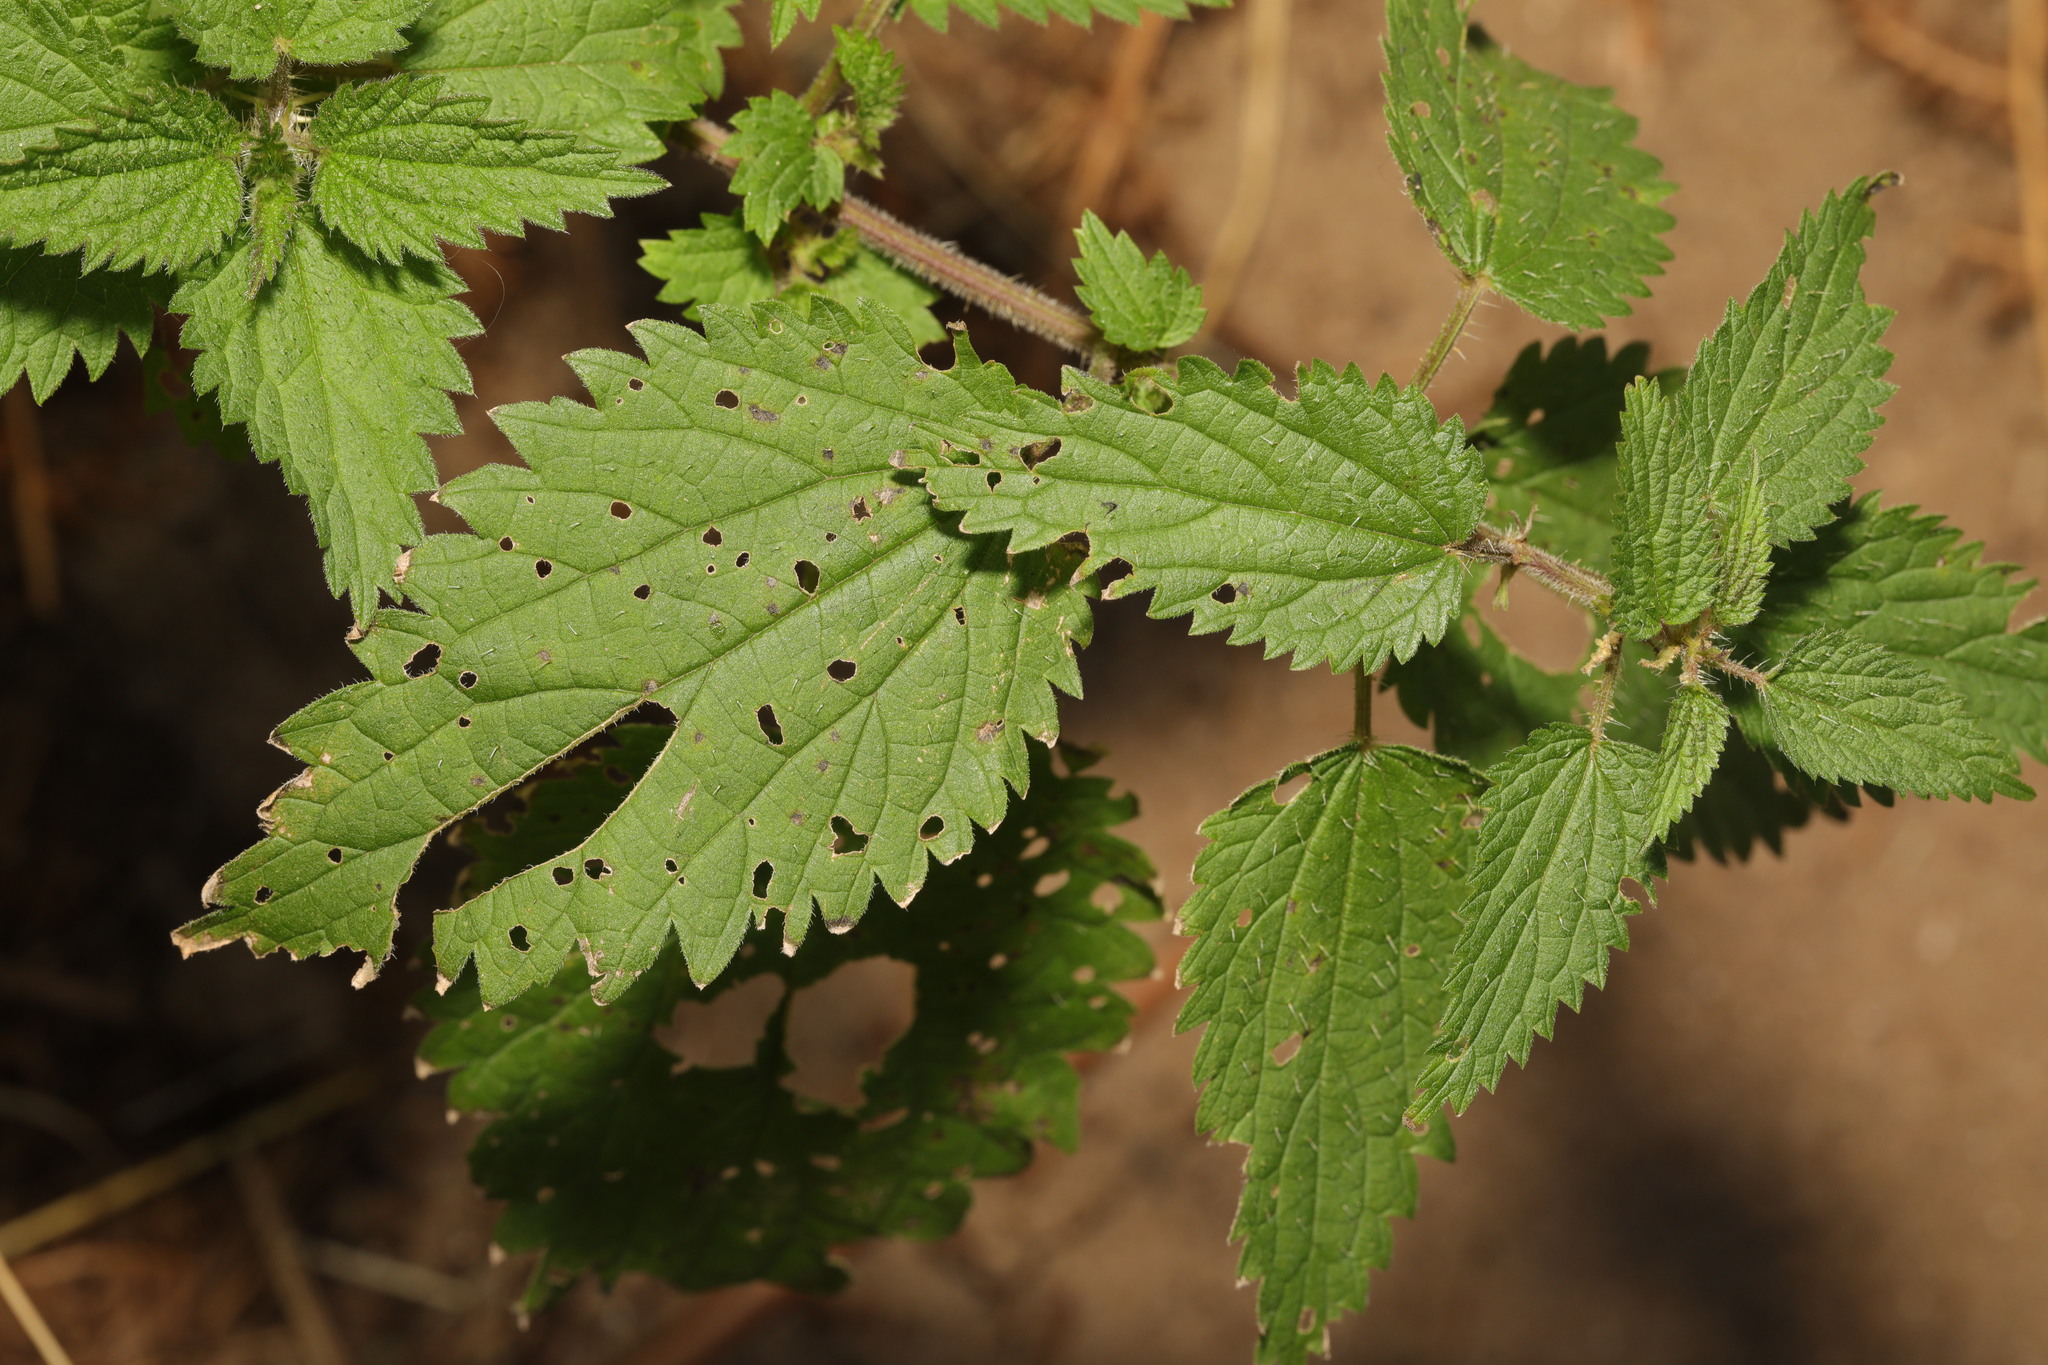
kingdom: Plantae
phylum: Tracheophyta
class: Magnoliopsida
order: Rosales
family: Urticaceae
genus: Urtica
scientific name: Urtica dioica
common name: Common nettle
